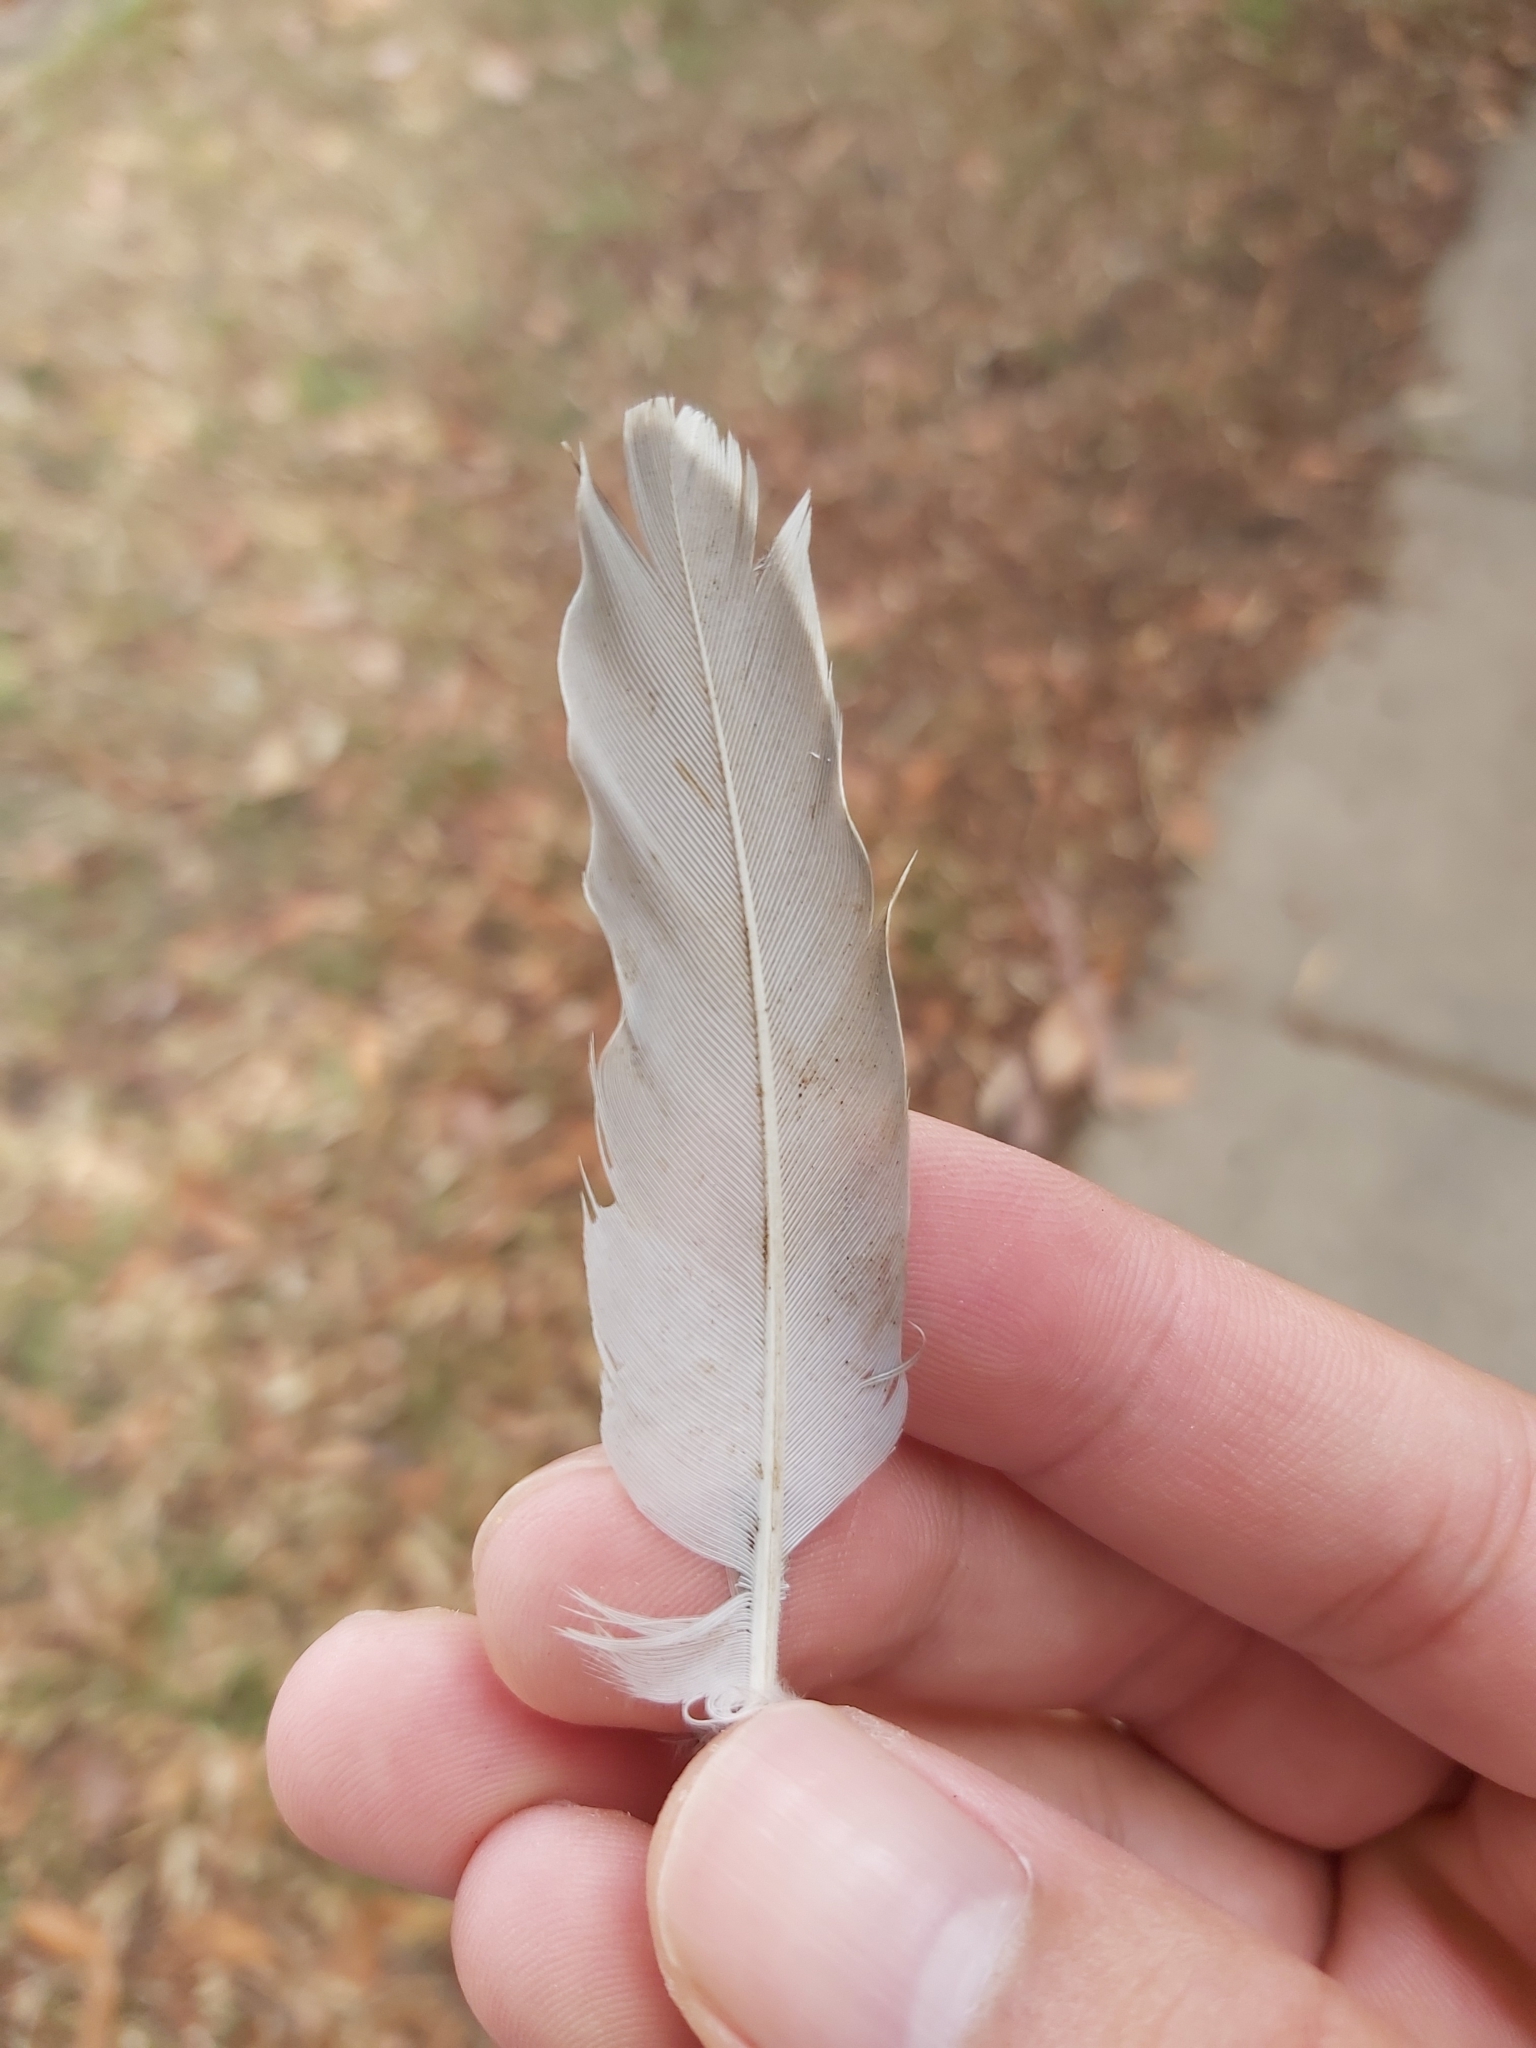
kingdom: Animalia
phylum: Chordata
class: Aves
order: Columbiformes
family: Columbidae
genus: Ocyphaps
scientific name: Ocyphaps lophotes
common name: Crested pigeon
